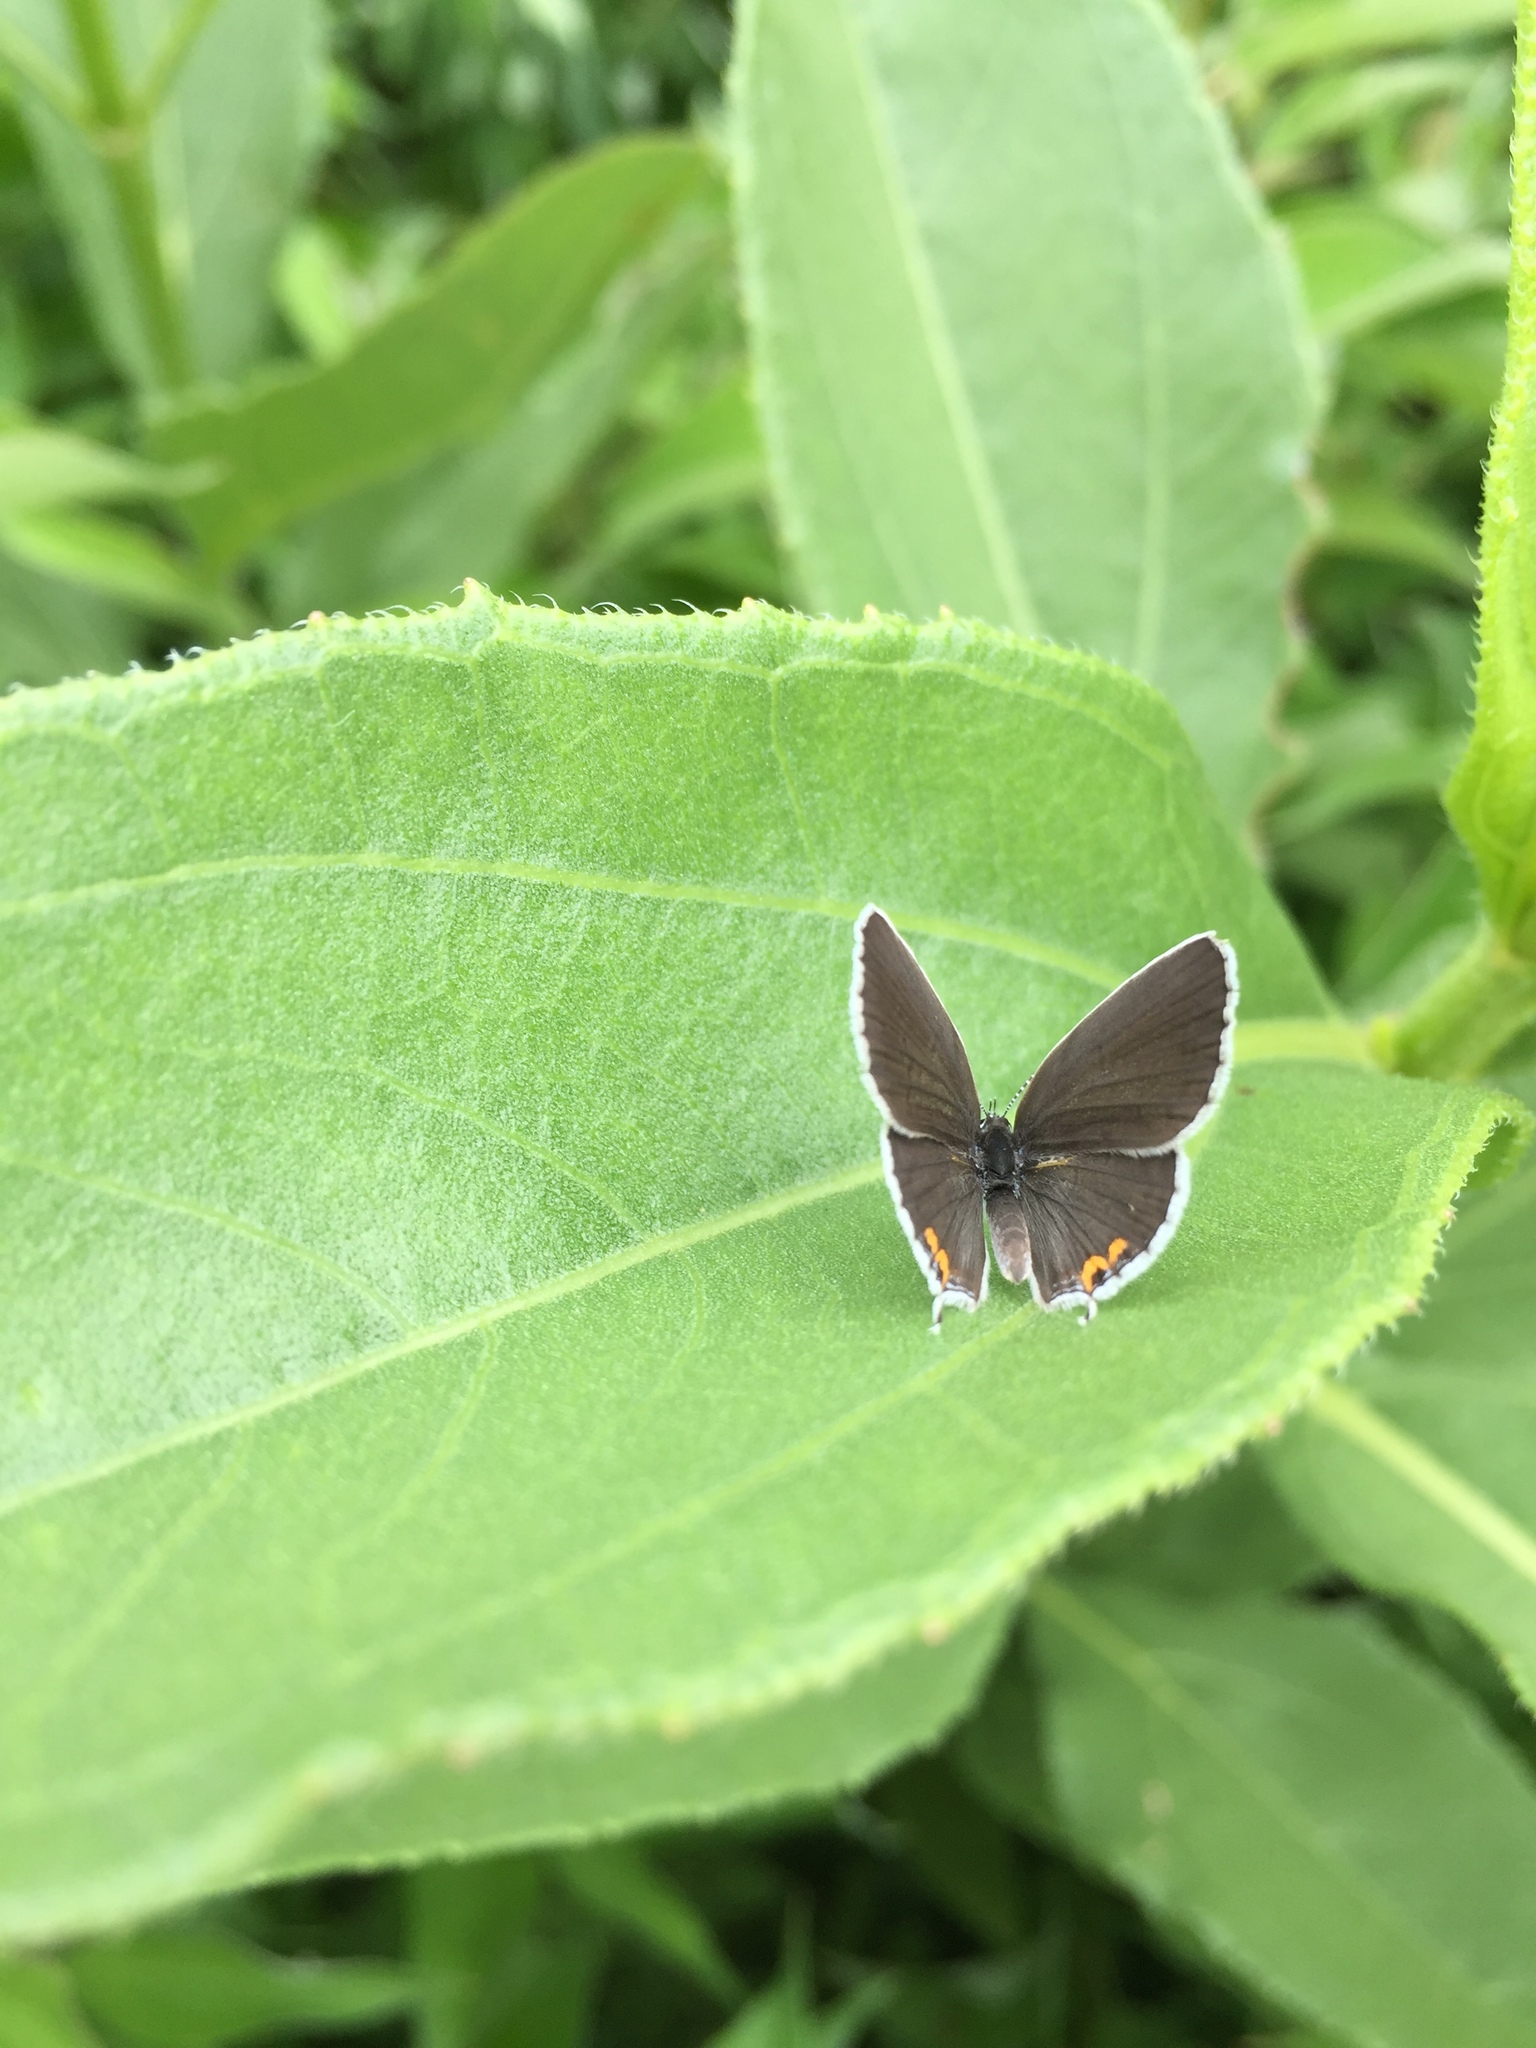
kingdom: Animalia
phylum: Arthropoda
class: Insecta
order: Lepidoptera
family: Lycaenidae
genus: Elkalyce
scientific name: Elkalyce comyntas
